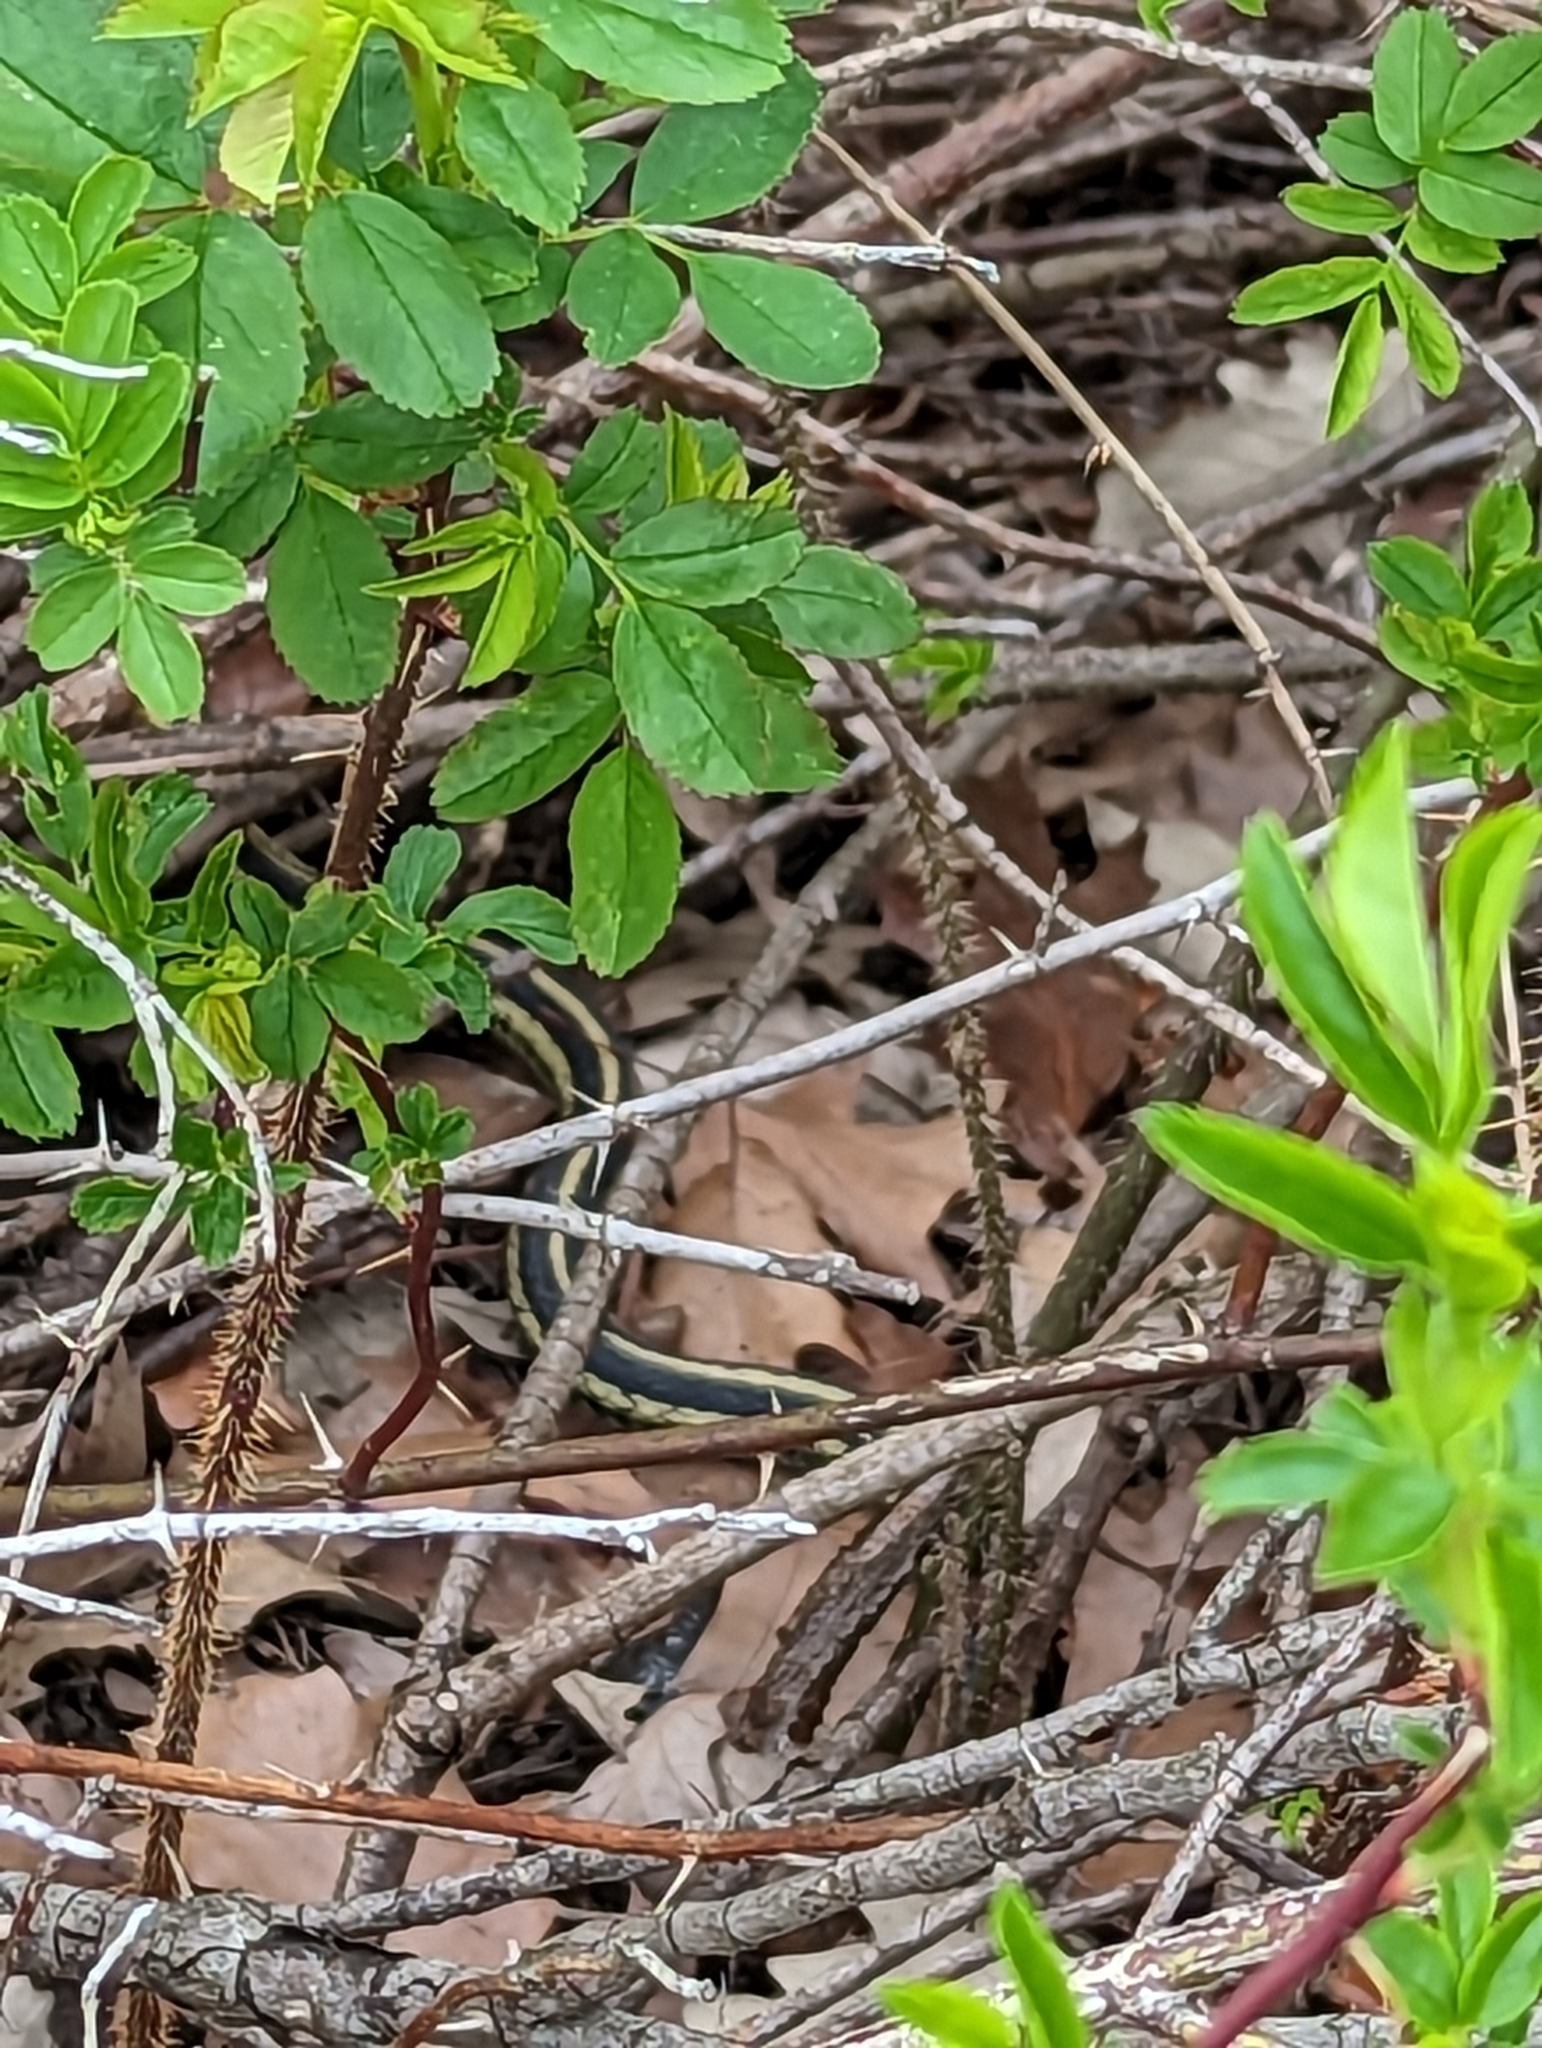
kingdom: Animalia
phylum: Chordata
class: Squamata
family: Colubridae
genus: Thamnophis
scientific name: Thamnophis sirtalis
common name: Common garter snake
